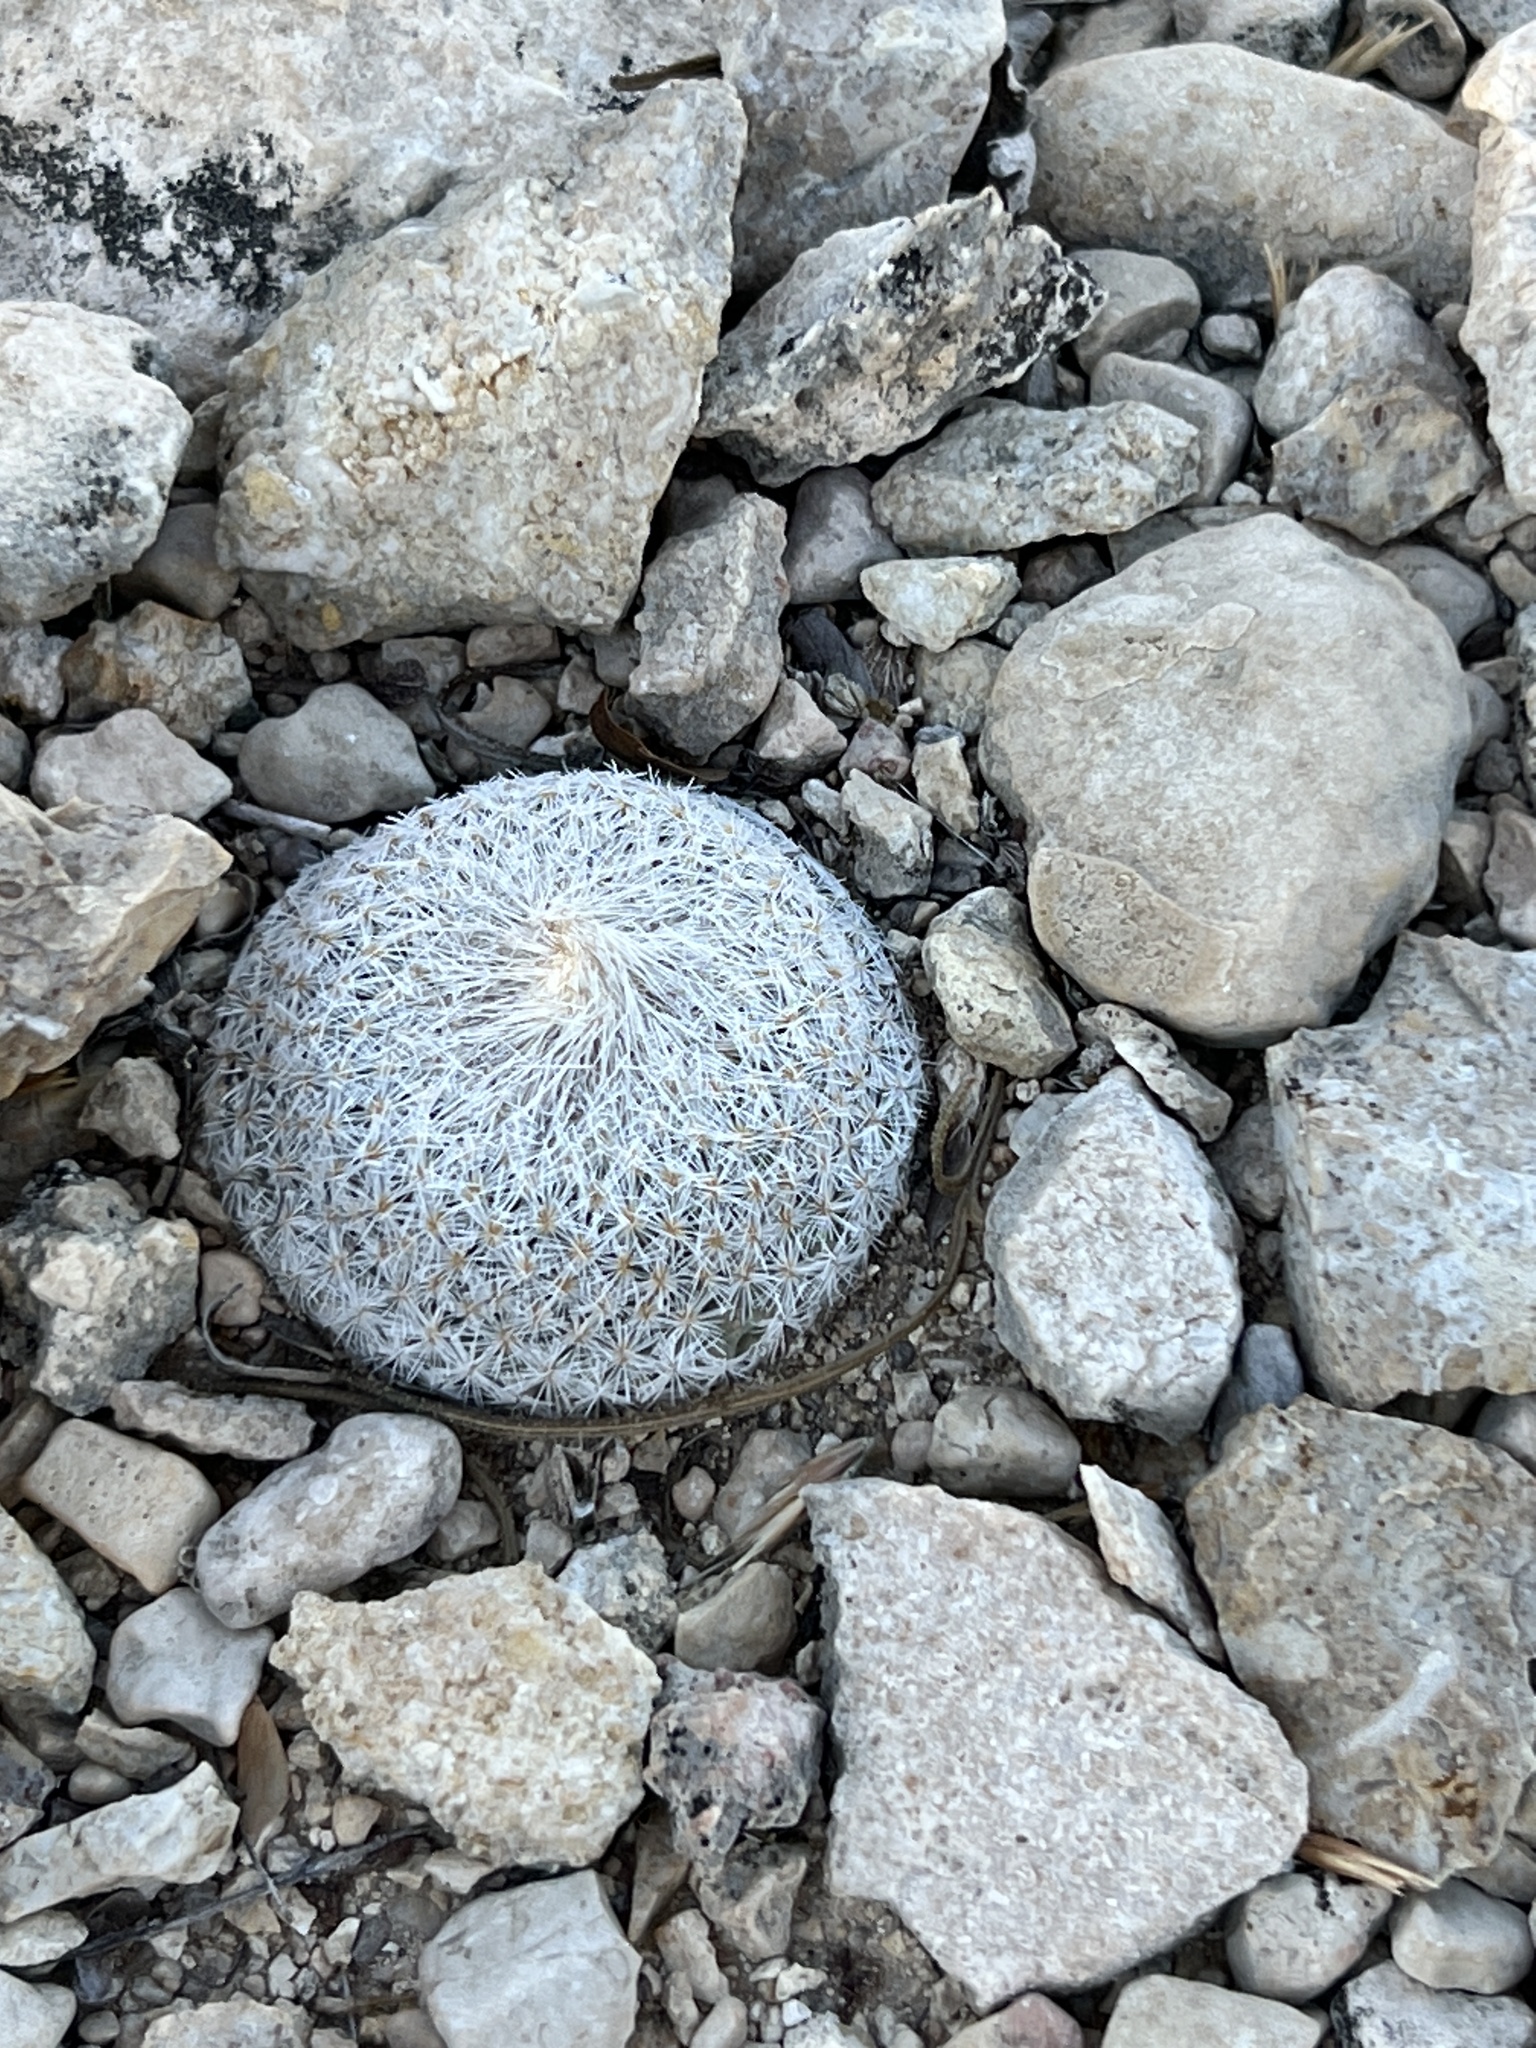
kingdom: Plantae
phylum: Tracheophyta
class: Magnoliopsida
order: Caryophyllales
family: Cactaceae
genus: Epithelantha
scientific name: Epithelantha micromeris
